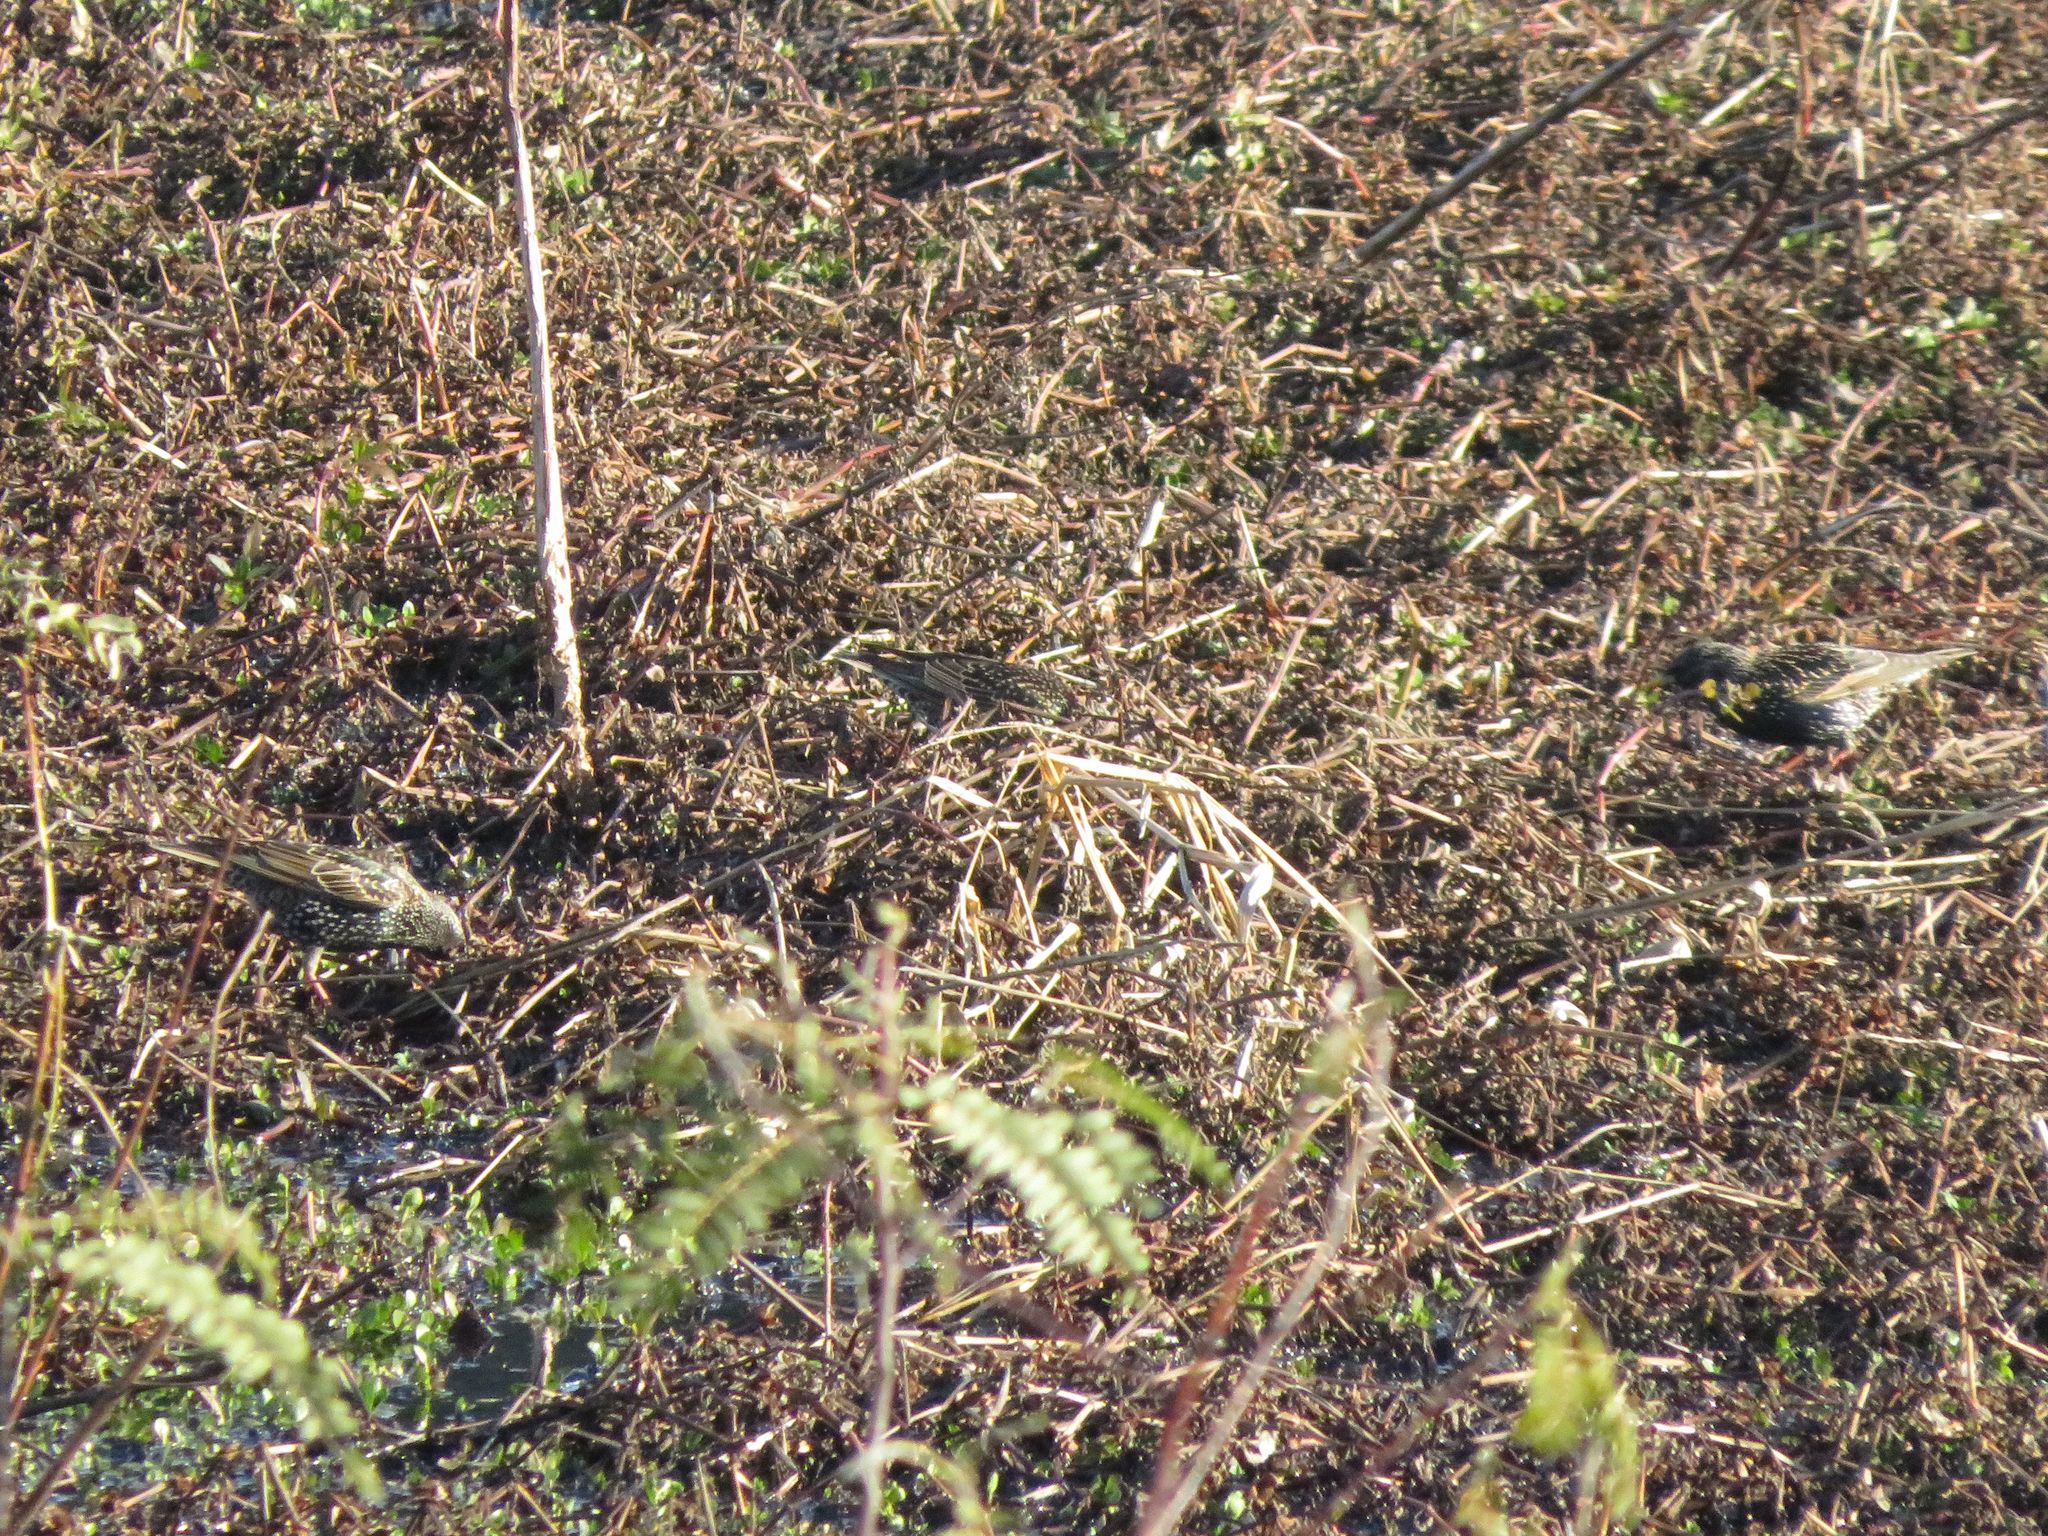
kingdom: Animalia
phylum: Chordata
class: Aves
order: Passeriformes
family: Sturnidae
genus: Sturnus
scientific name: Sturnus vulgaris
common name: Common starling
